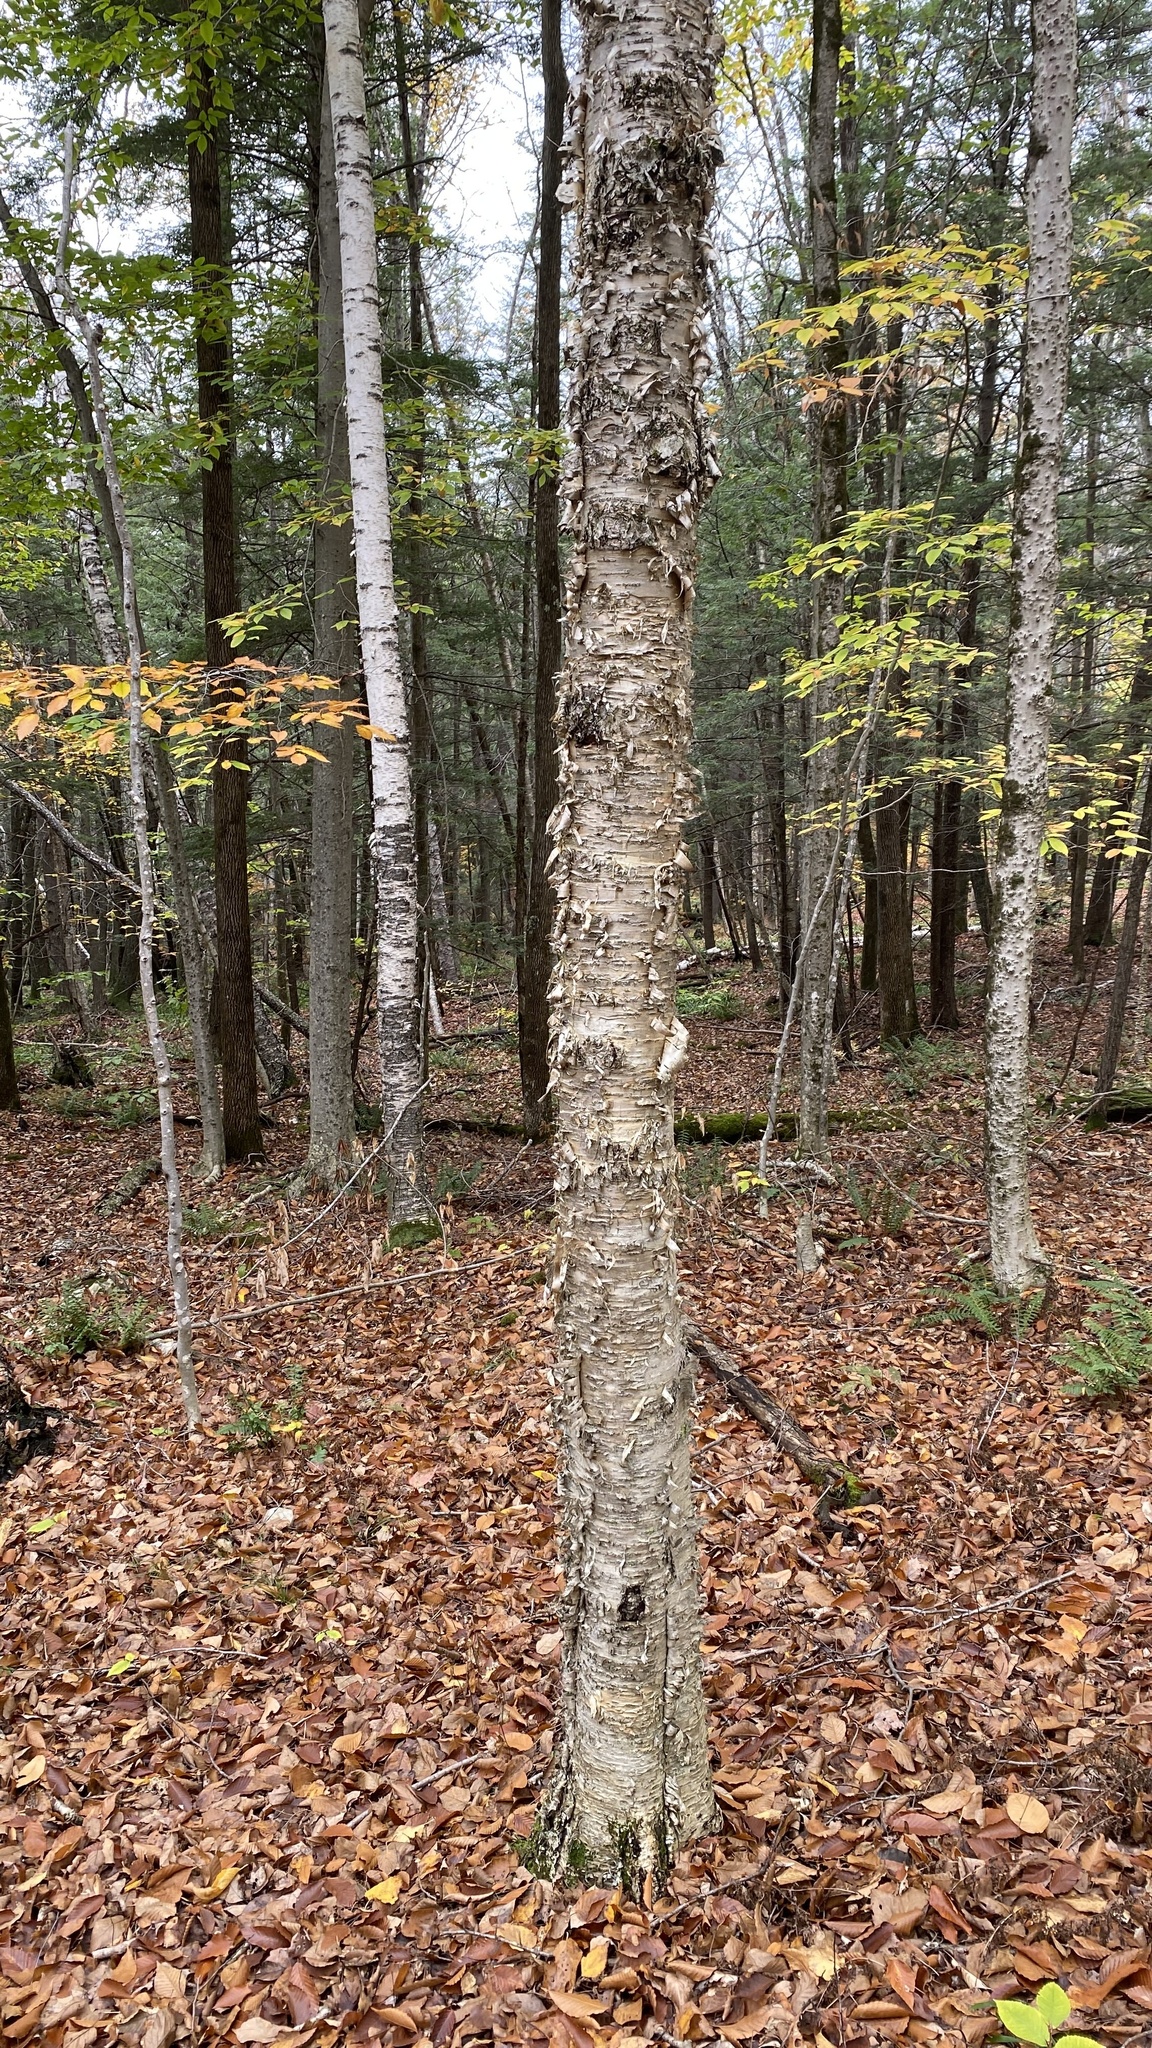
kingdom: Plantae
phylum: Tracheophyta
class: Magnoliopsida
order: Fagales
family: Betulaceae
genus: Betula
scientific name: Betula papyrifera
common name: Paper birch
